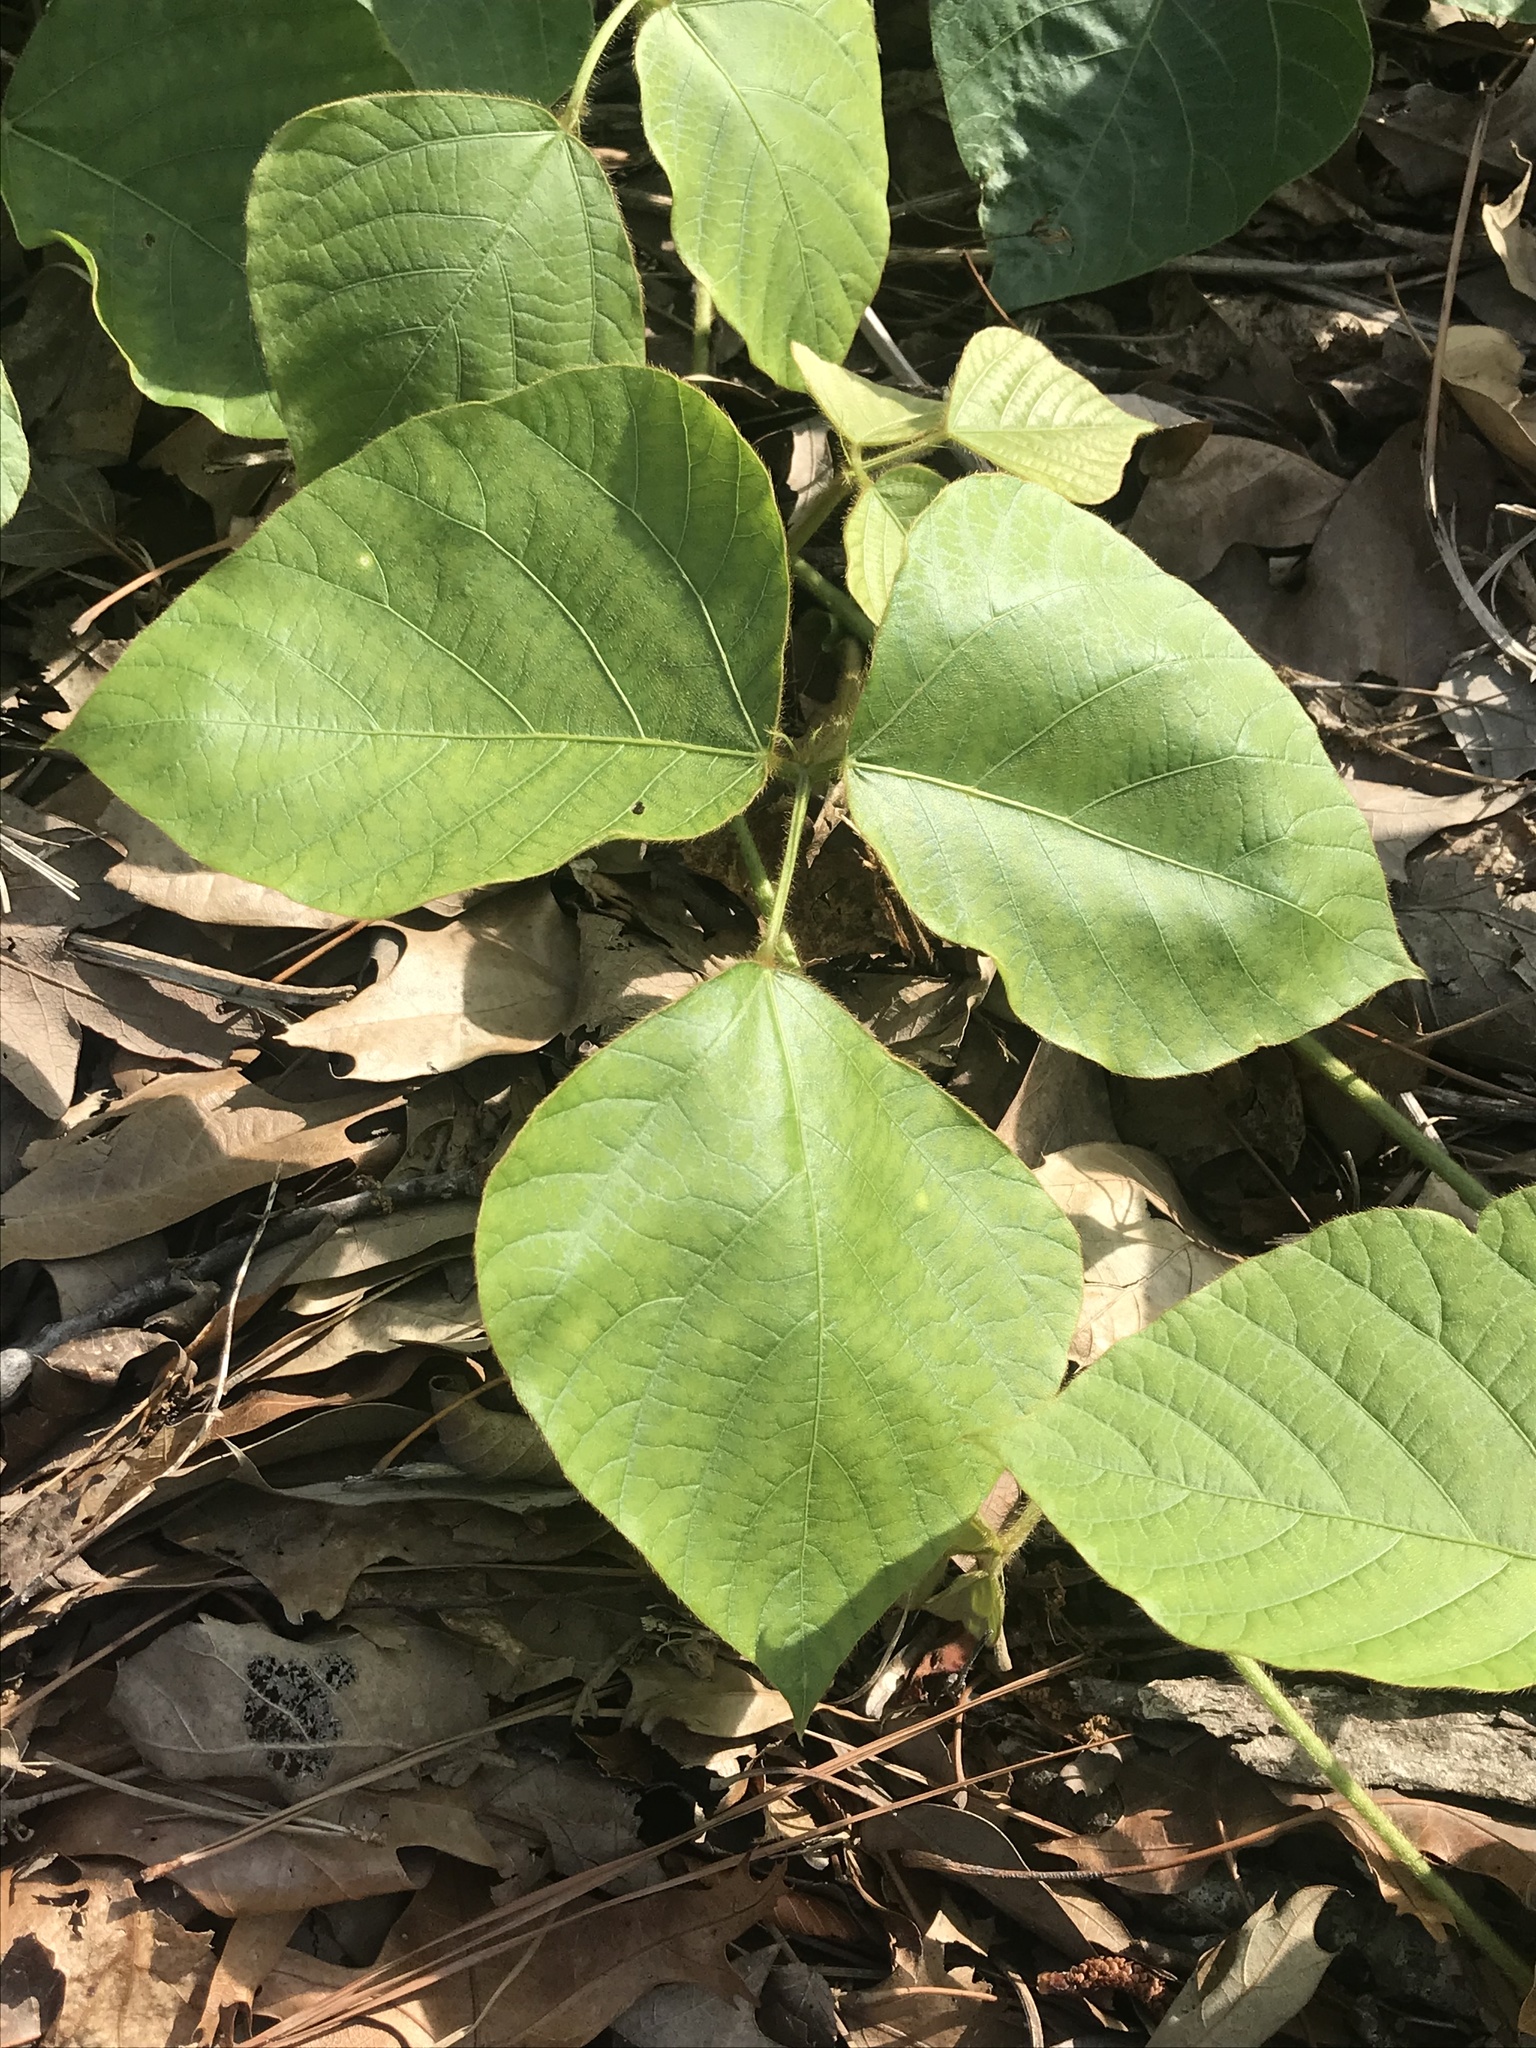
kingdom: Plantae
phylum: Tracheophyta
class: Magnoliopsida
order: Fabales
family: Fabaceae
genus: Pueraria
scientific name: Pueraria montana
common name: Kudzu
